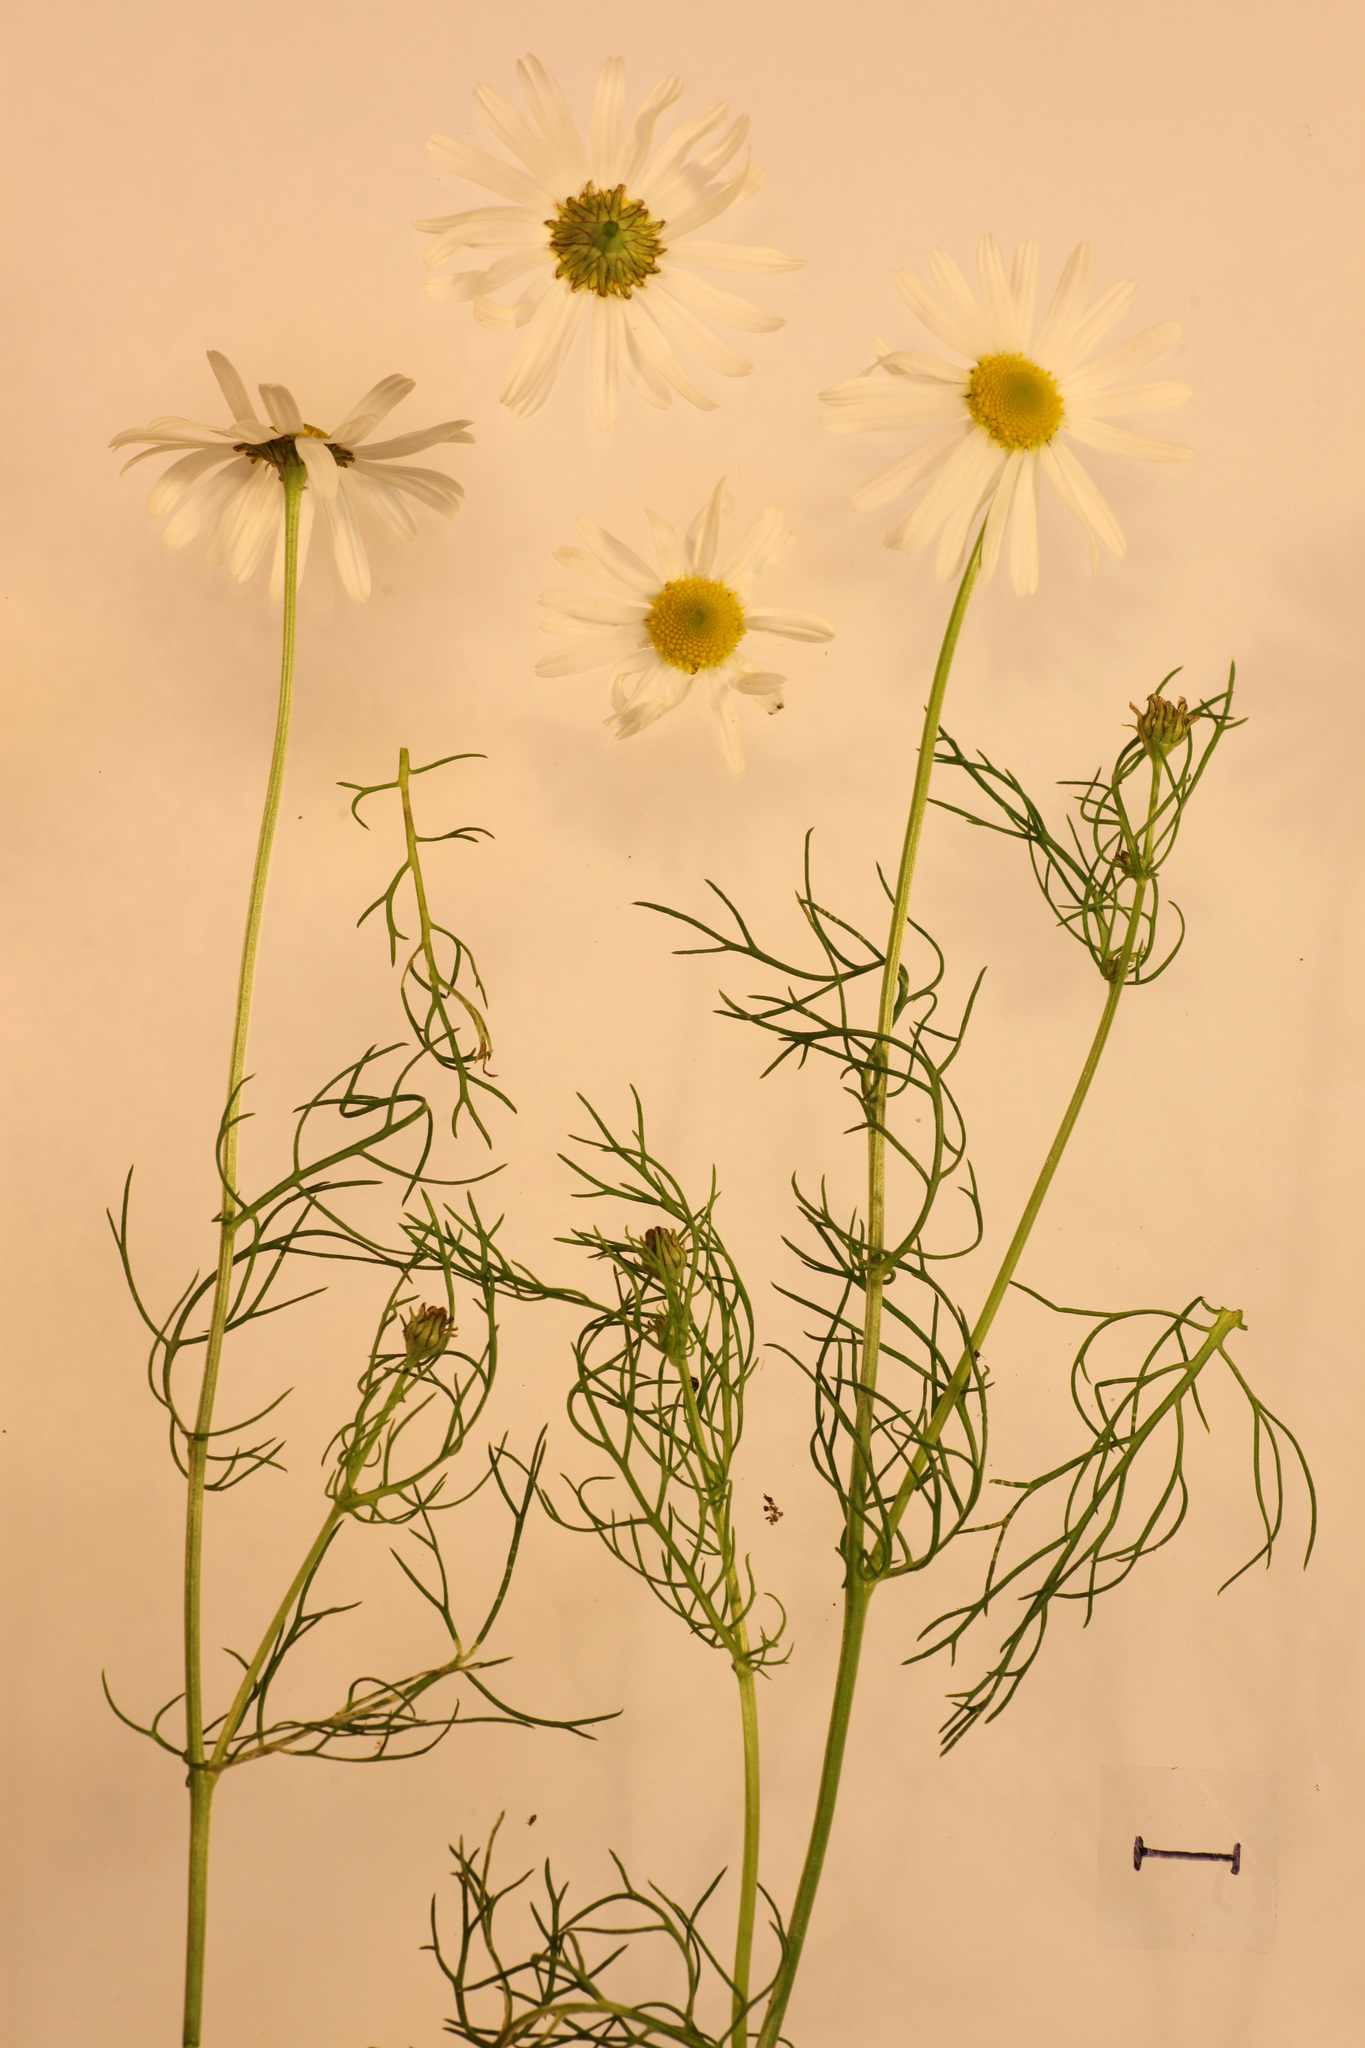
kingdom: Plantae
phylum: Tracheophyta
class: Magnoliopsida
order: Asterales
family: Asteraceae
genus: Tripleurospermum
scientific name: Tripleurospermum inodorum
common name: Scentless mayweed
